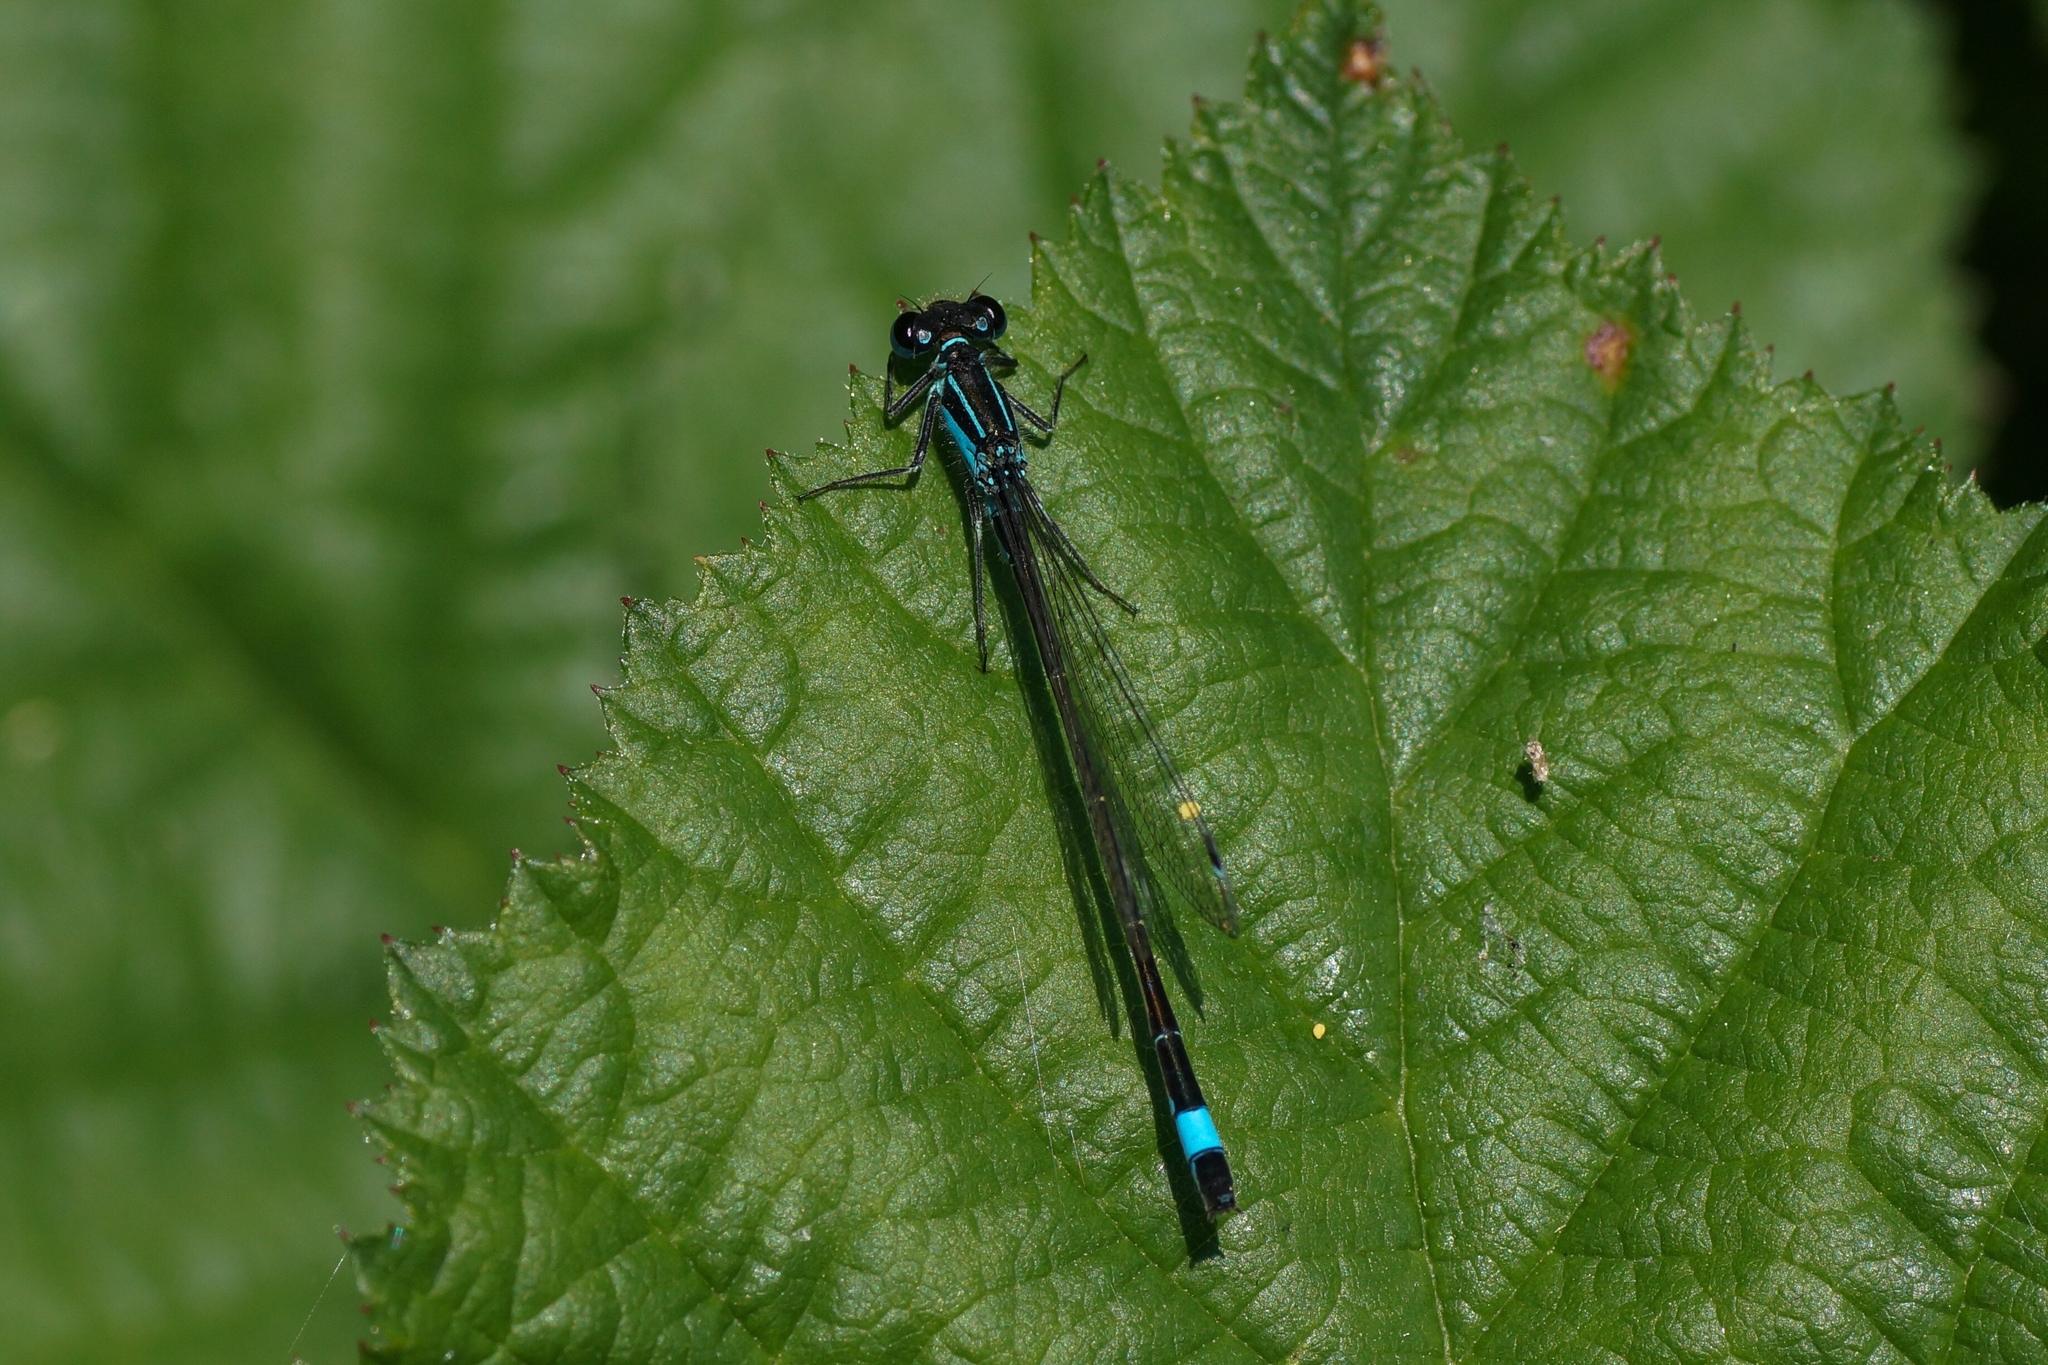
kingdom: Animalia
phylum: Arthropoda
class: Insecta
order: Odonata
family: Coenagrionidae
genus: Ischnura
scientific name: Ischnura elegans
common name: Blue-tailed damselfly
